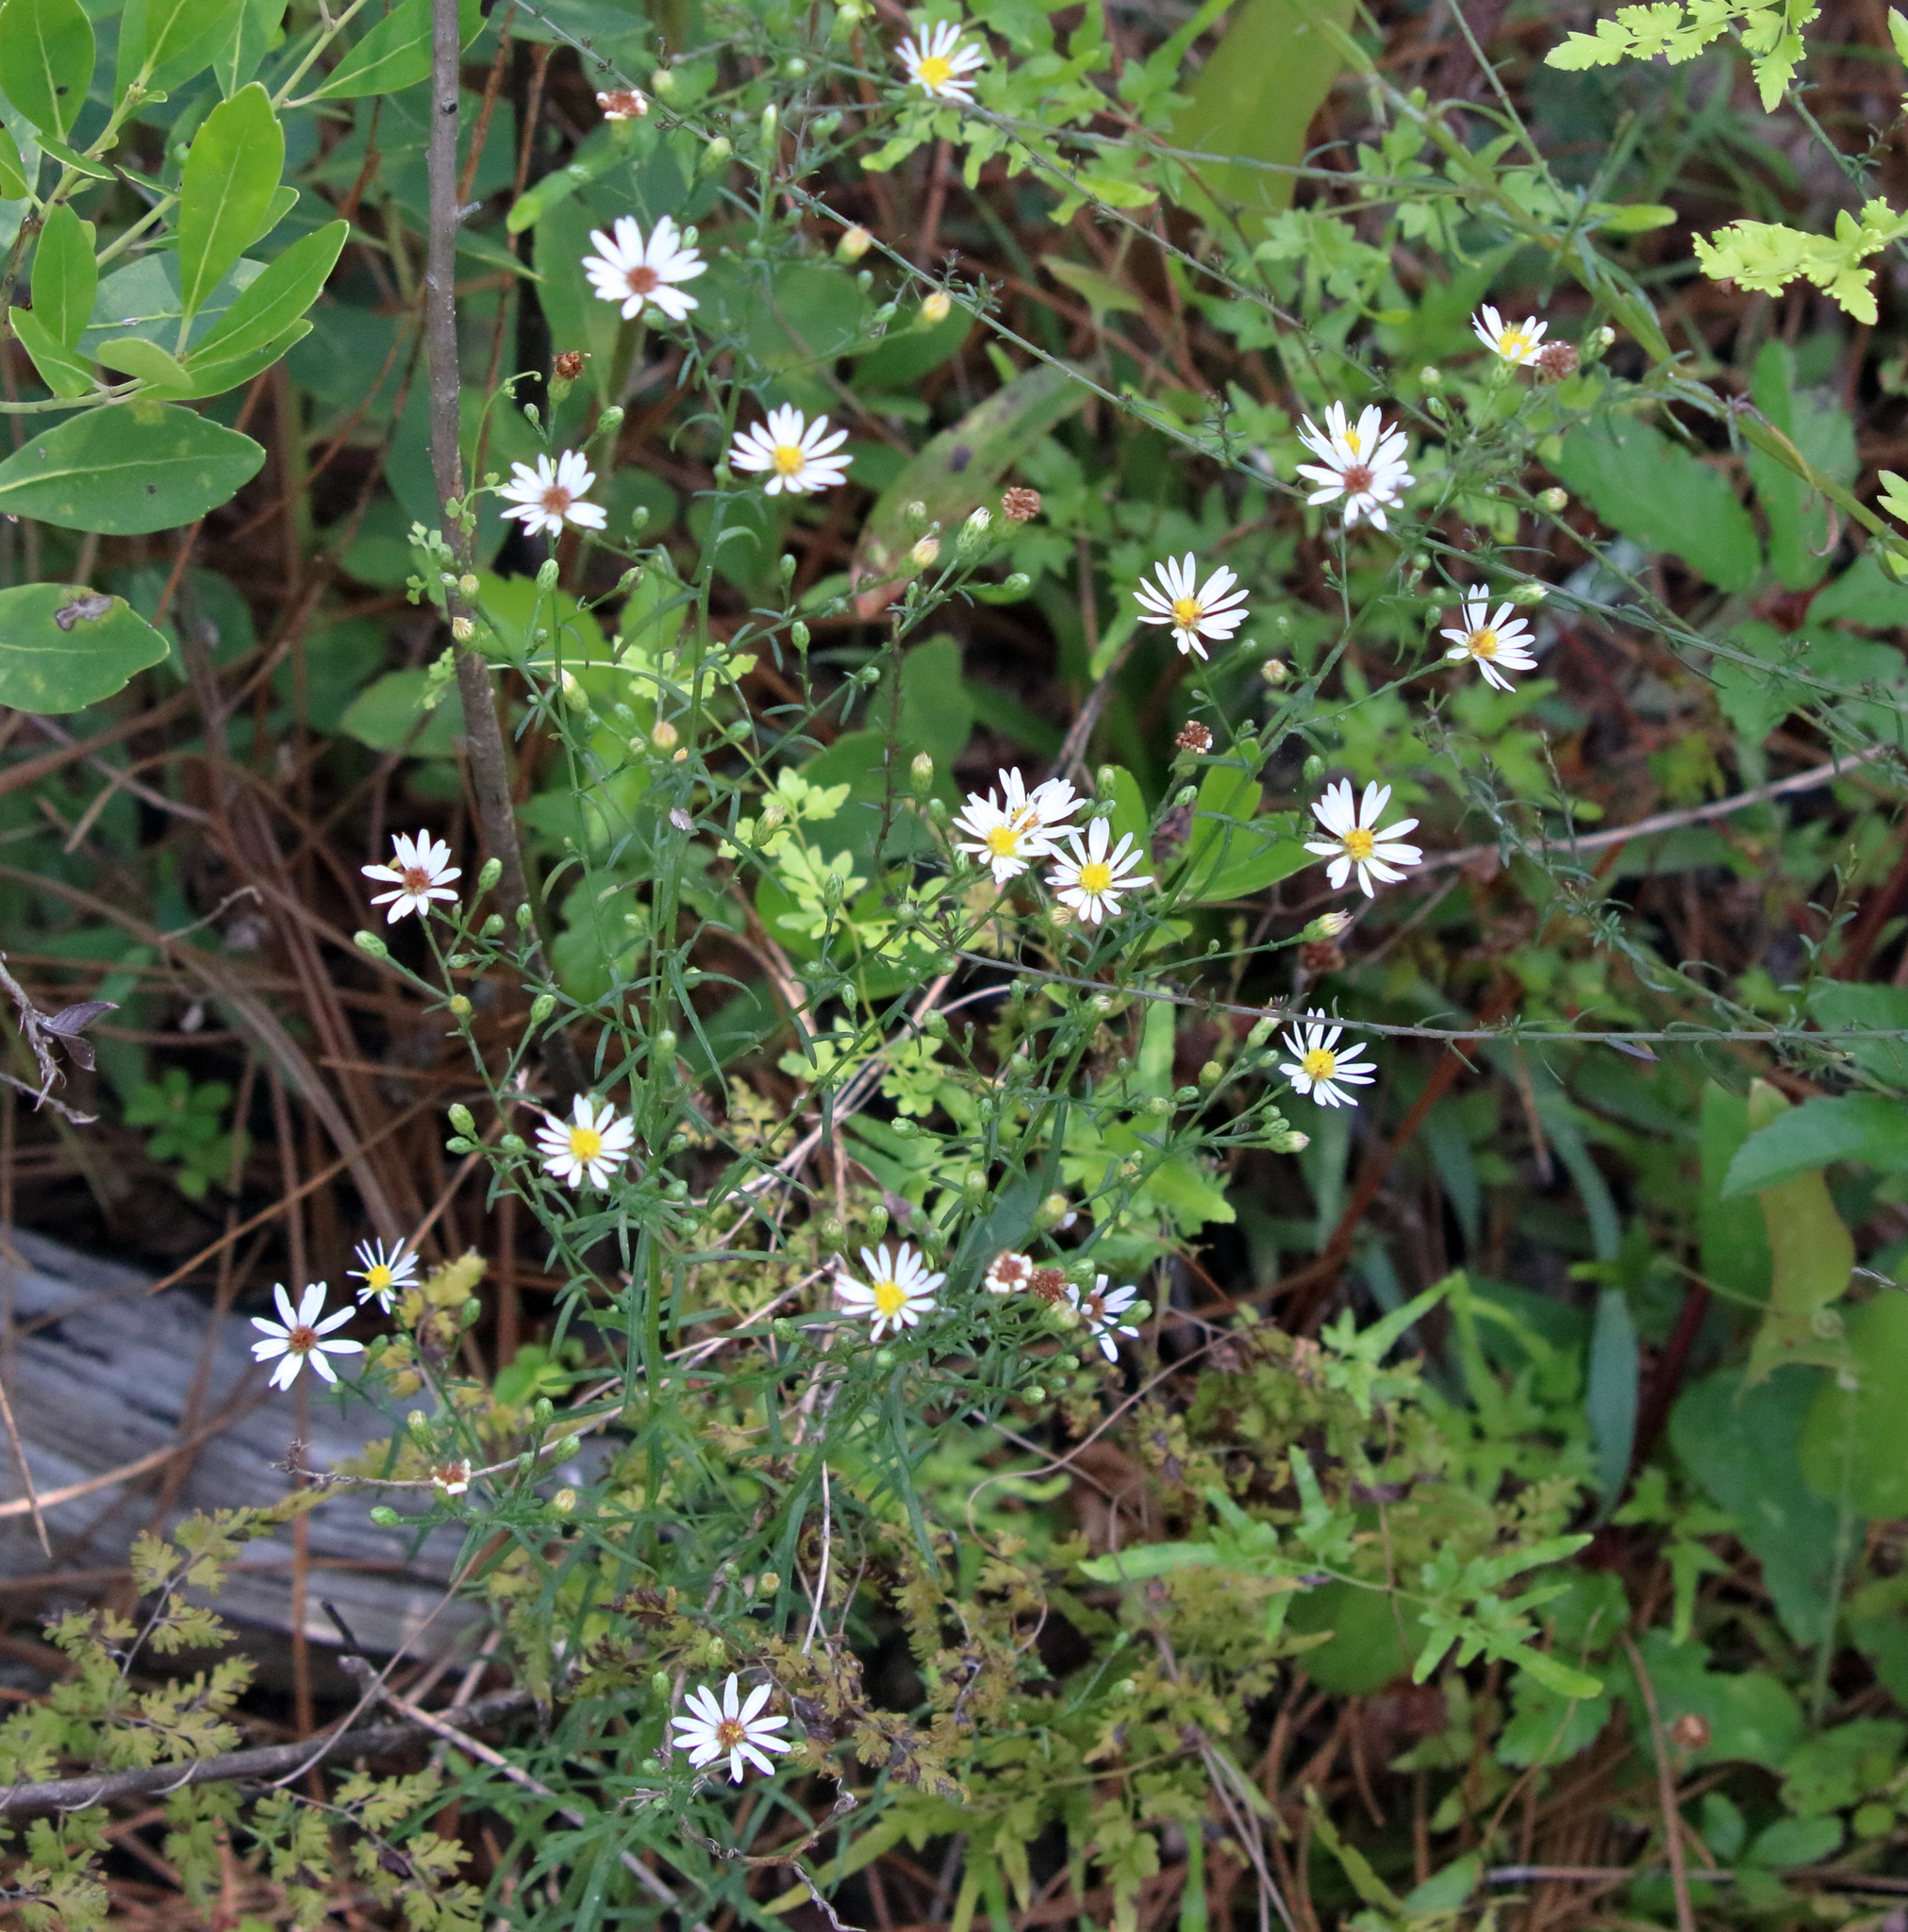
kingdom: Plantae
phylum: Tracheophyta
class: Magnoliopsida
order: Asterales
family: Asteraceae
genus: Symphyotrichum
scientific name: Symphyotrichum dumosum
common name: Bushy aster
